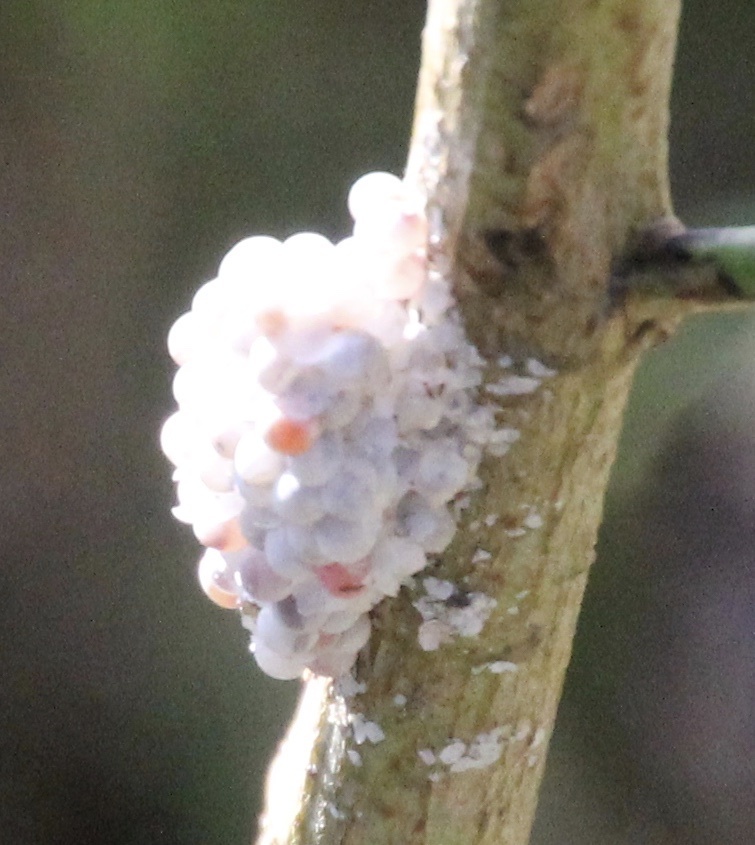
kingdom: Animalia
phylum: Mollusca
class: Gastropoda
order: Architaenioglossa
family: Ampullariidae
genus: Pomacea
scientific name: Pomacea maculata
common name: Giant applesnail
